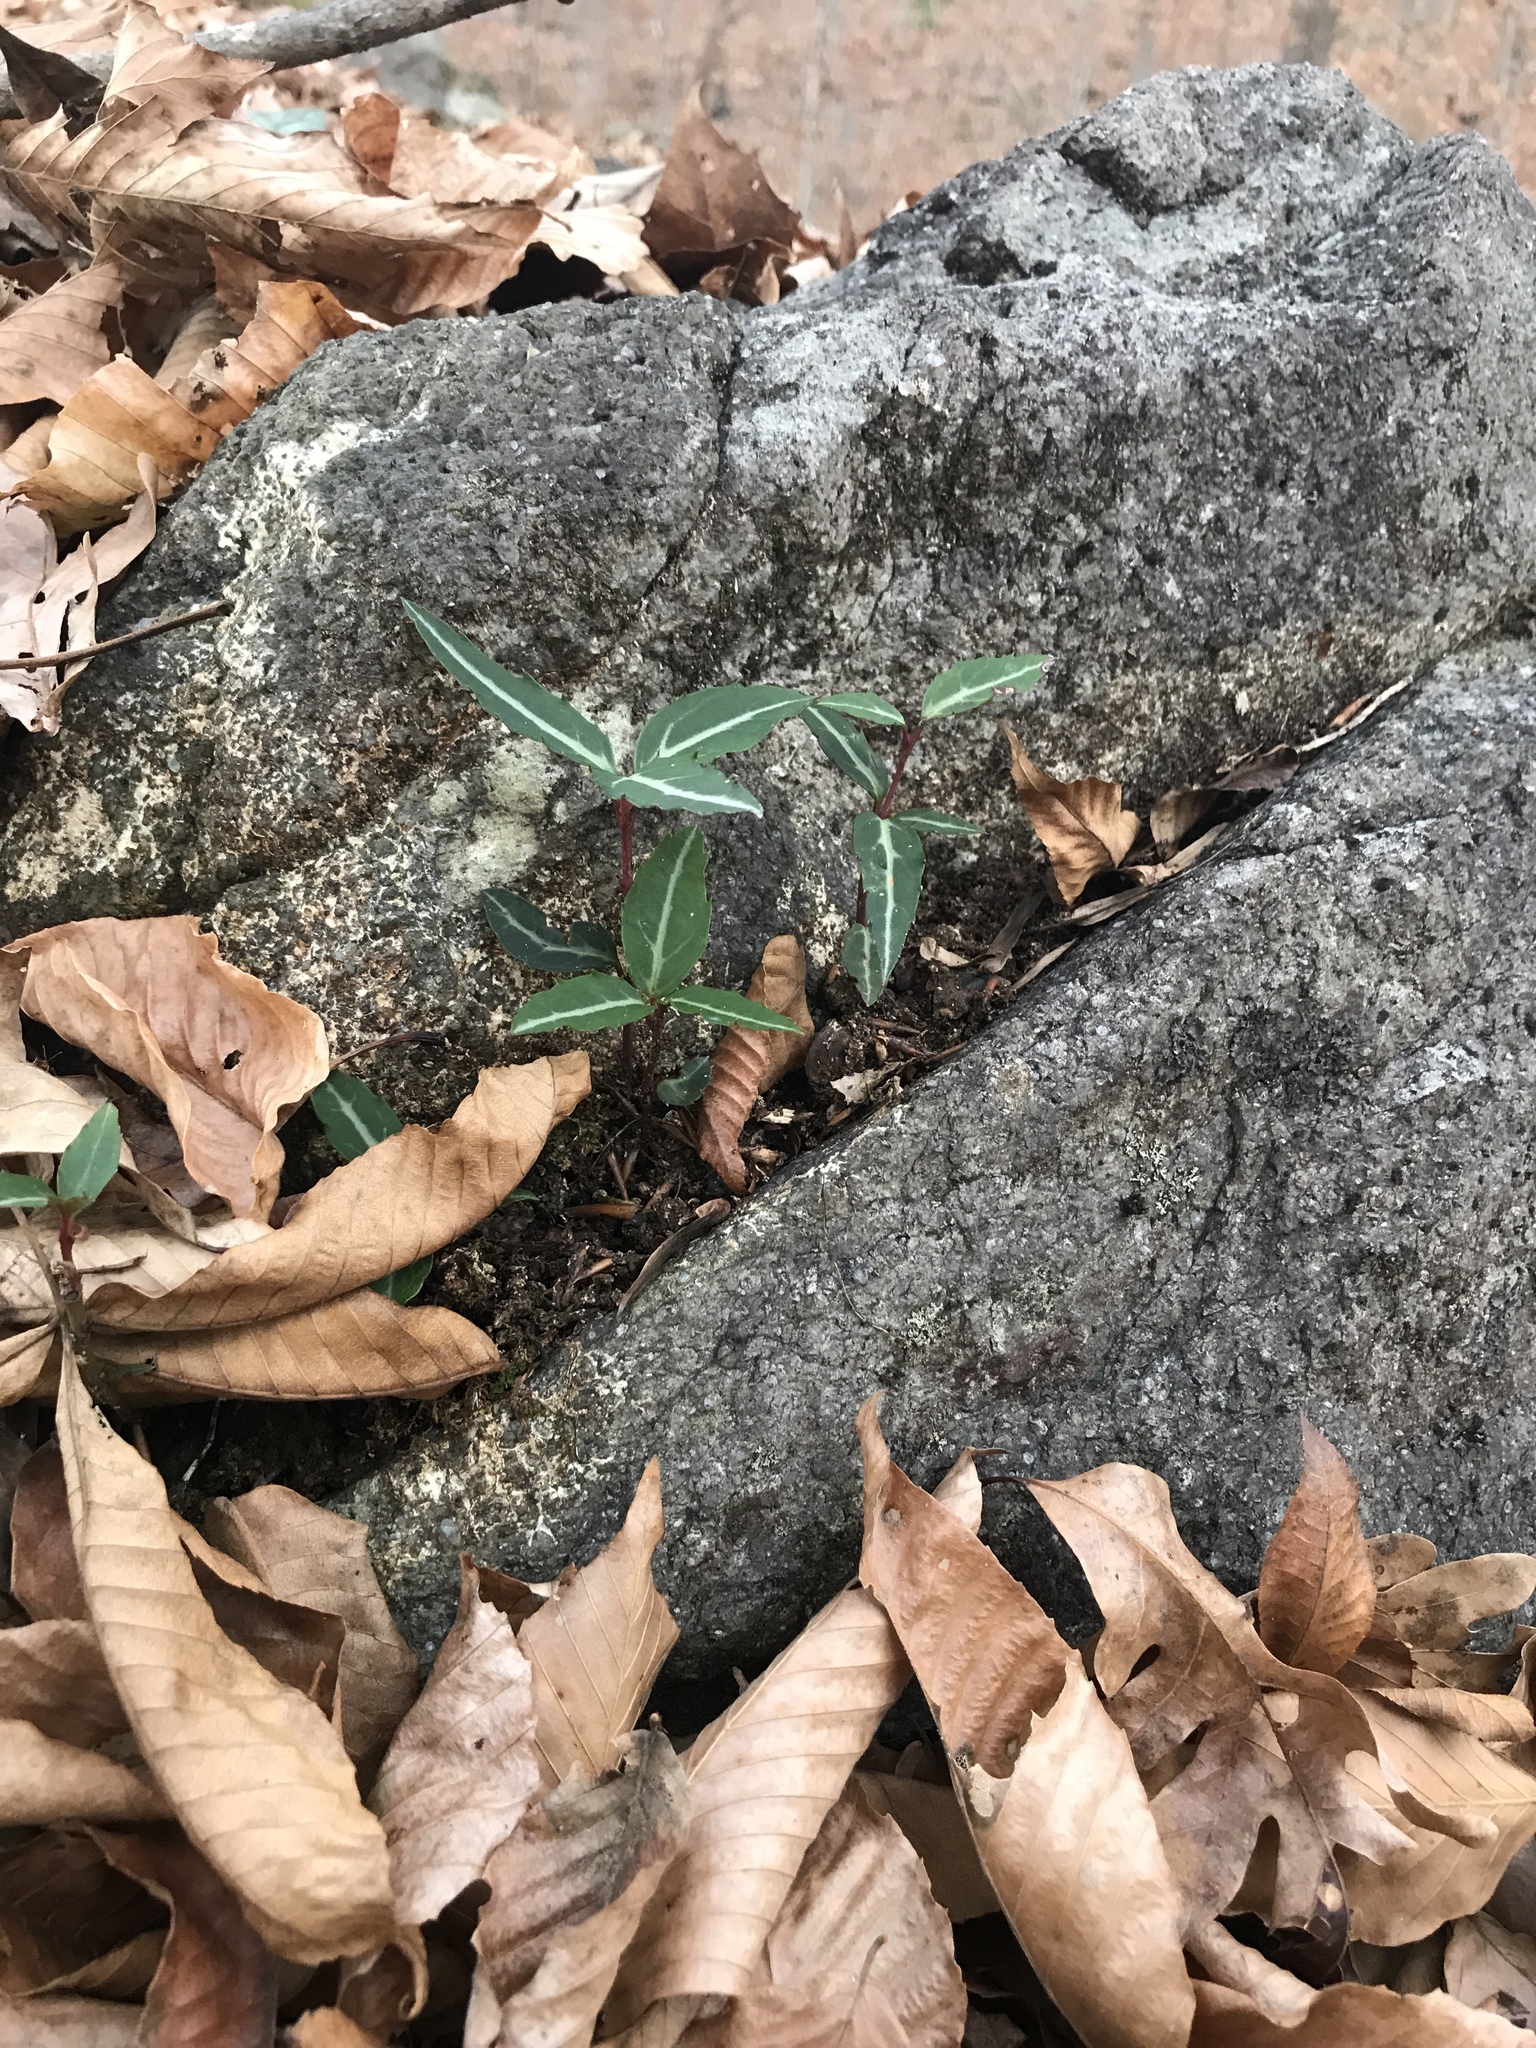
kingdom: Plantae
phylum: Tracheophyta
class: Magnoliopsida
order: Ericales
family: Ericaceae
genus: Chimaphila
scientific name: Chimaphila maculata
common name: Spotted pipsissewa
